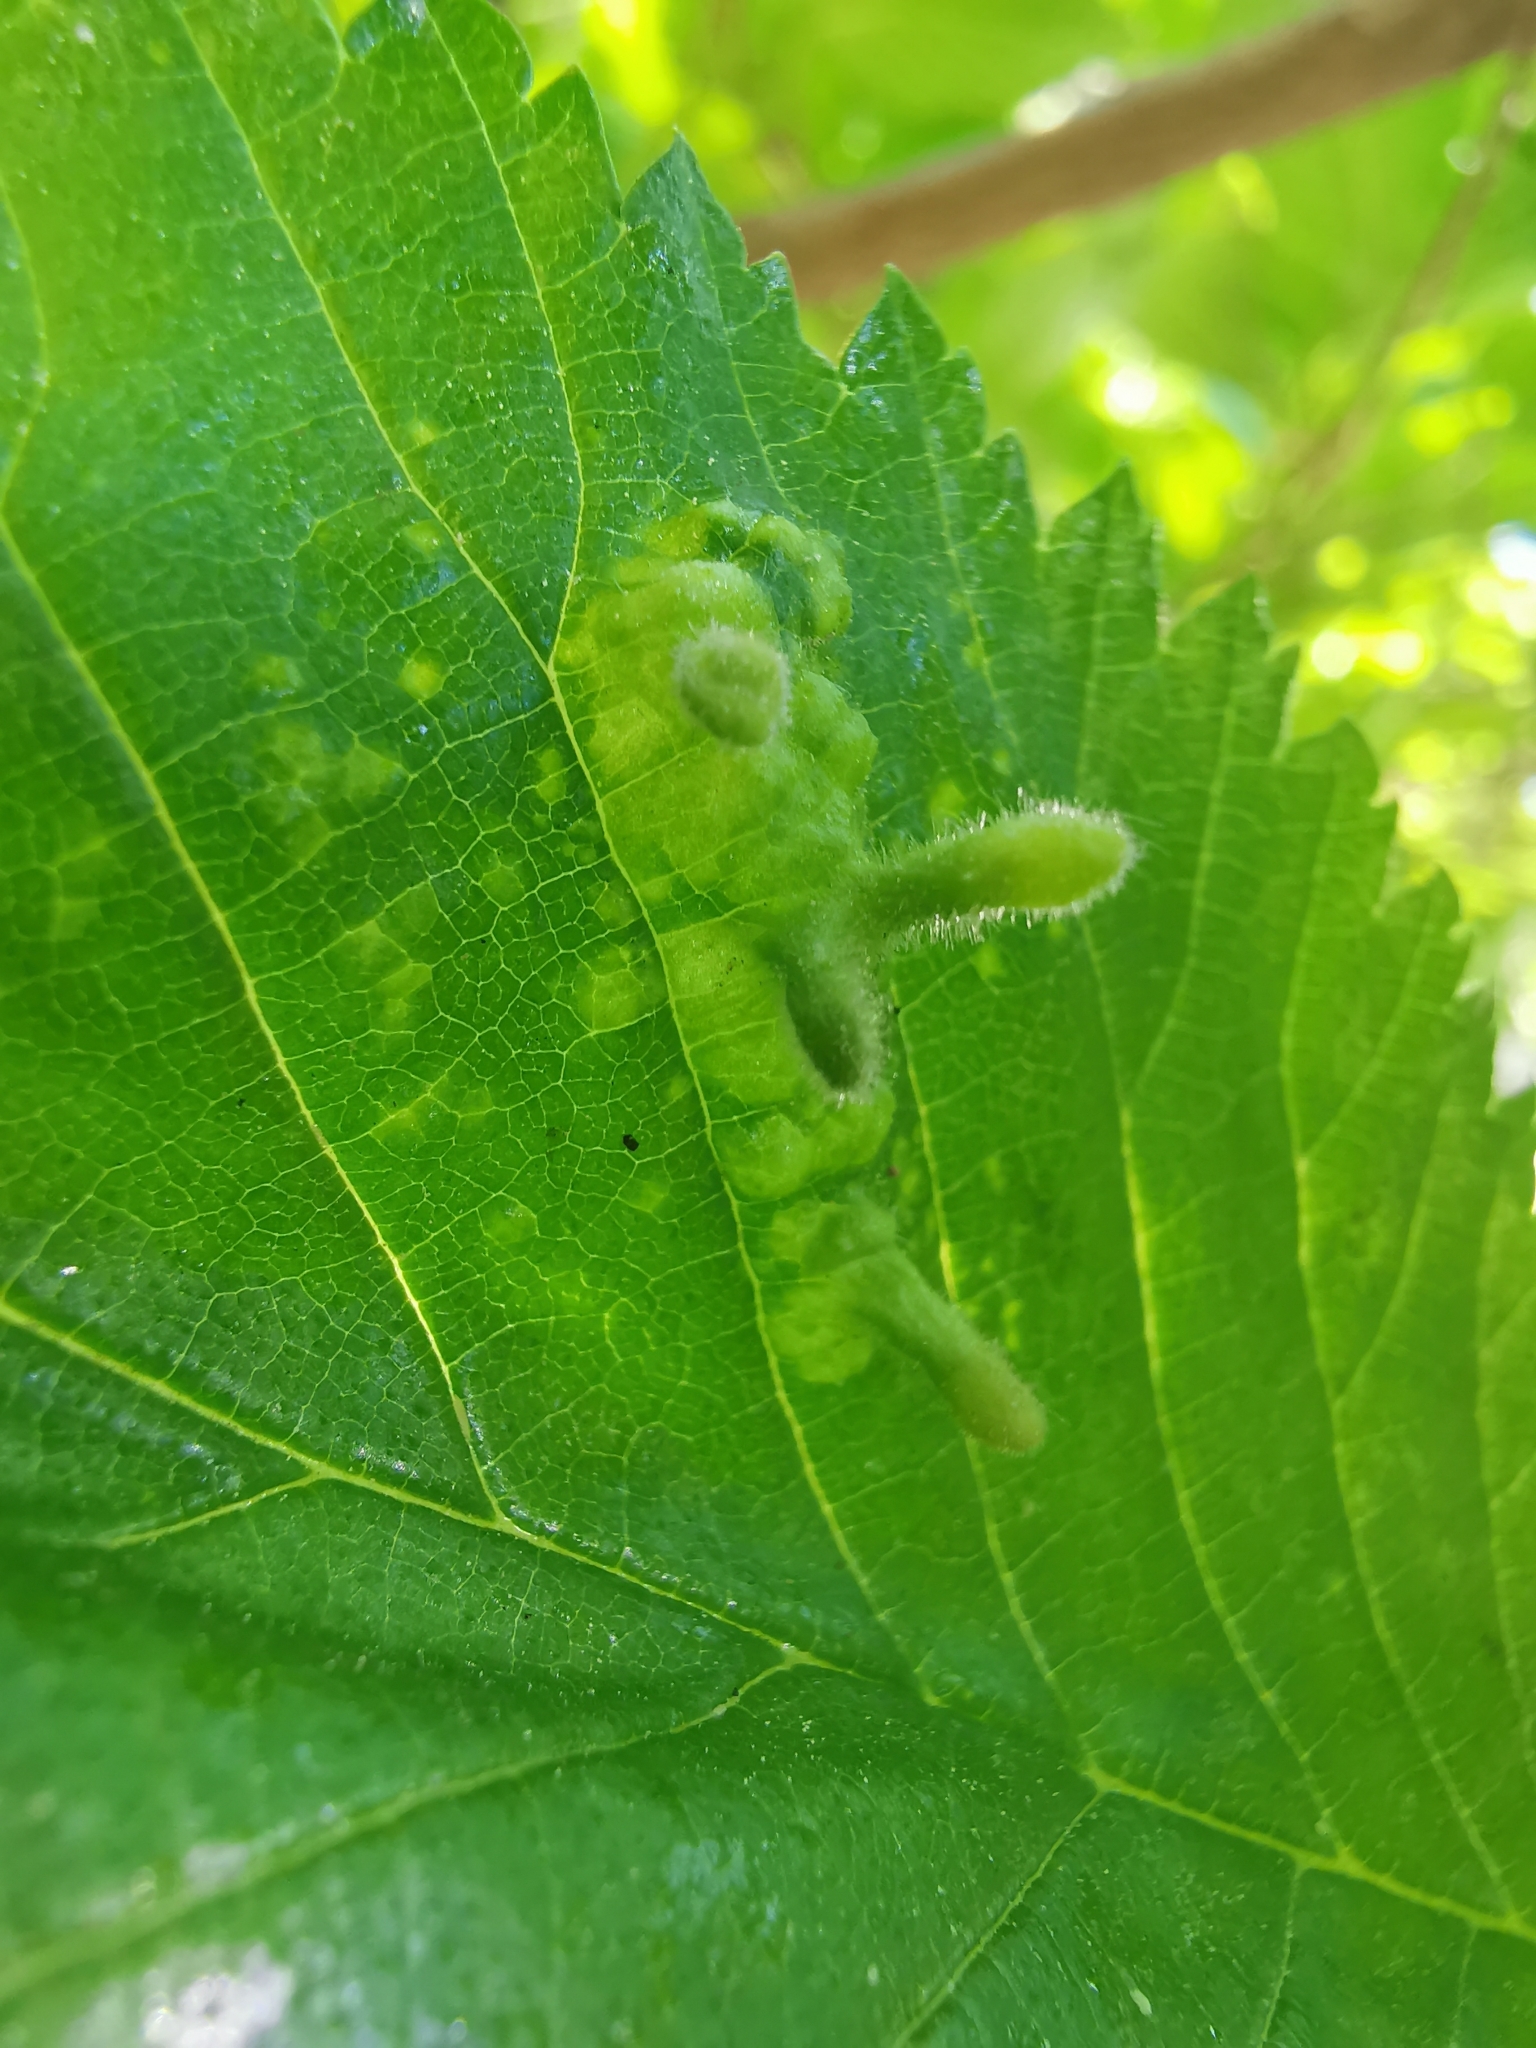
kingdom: Animalia
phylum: Arthropoda
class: Insecta
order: Hemiptera
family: Aphididae
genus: Tetraneura
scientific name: Tetraneura nigriabdominalis
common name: Aphid
